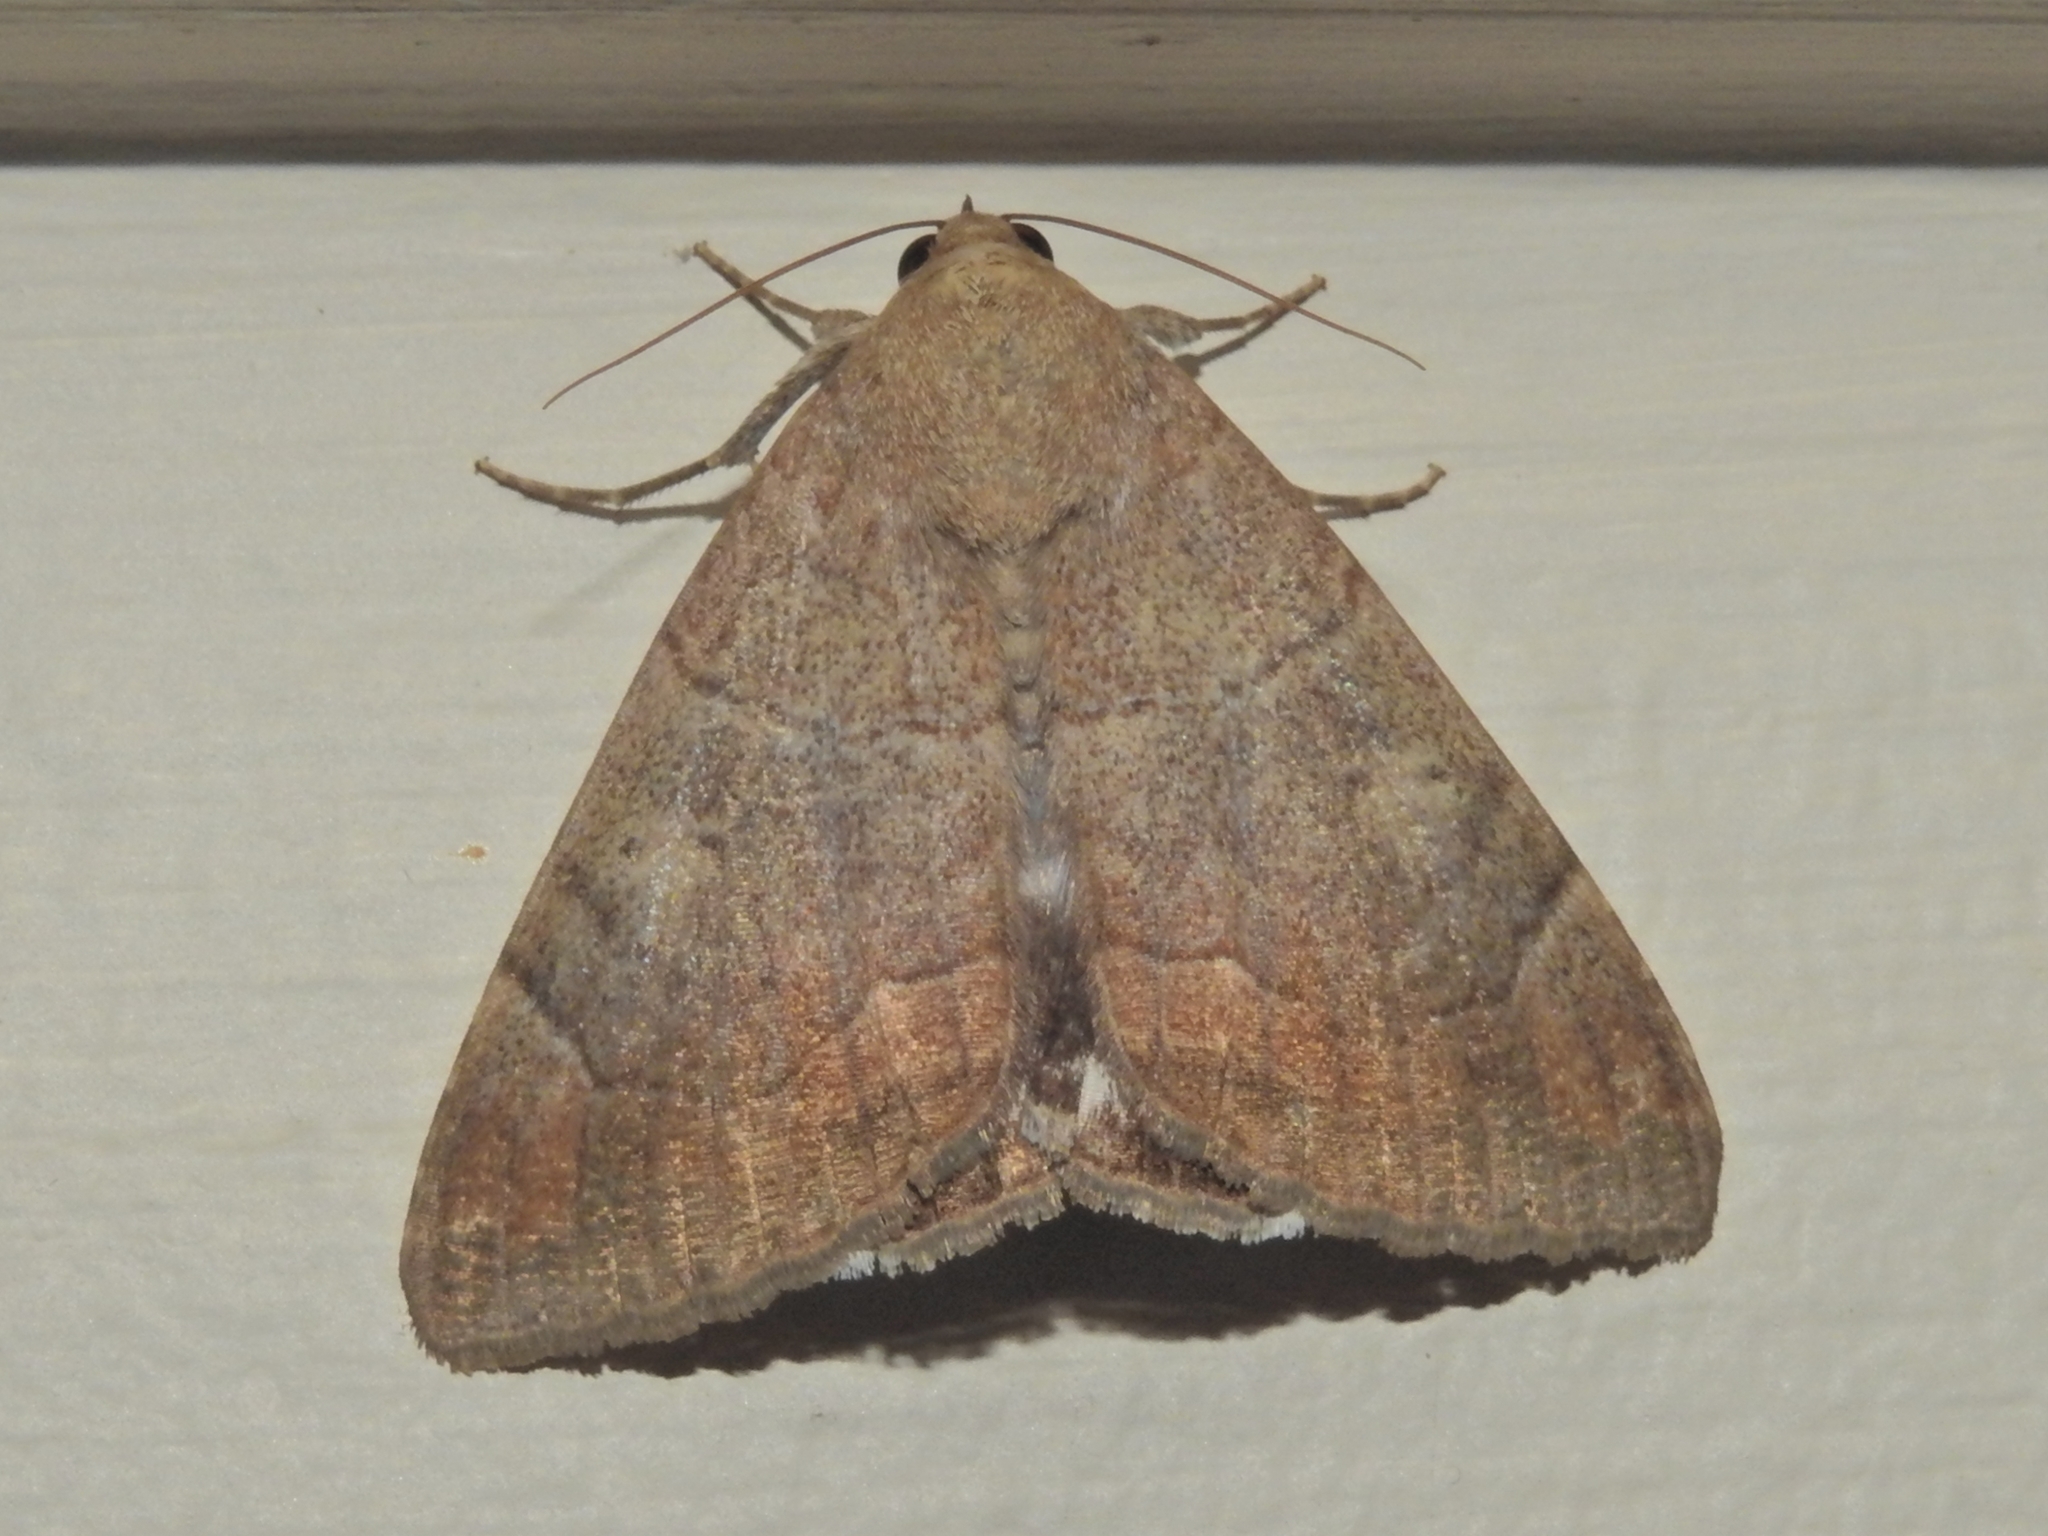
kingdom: Animalia
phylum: Arthropoda
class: Insecta
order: Lepidoptera
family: Erebidae
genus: Achaea
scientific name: Achaea janata
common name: Croton caterpillar
